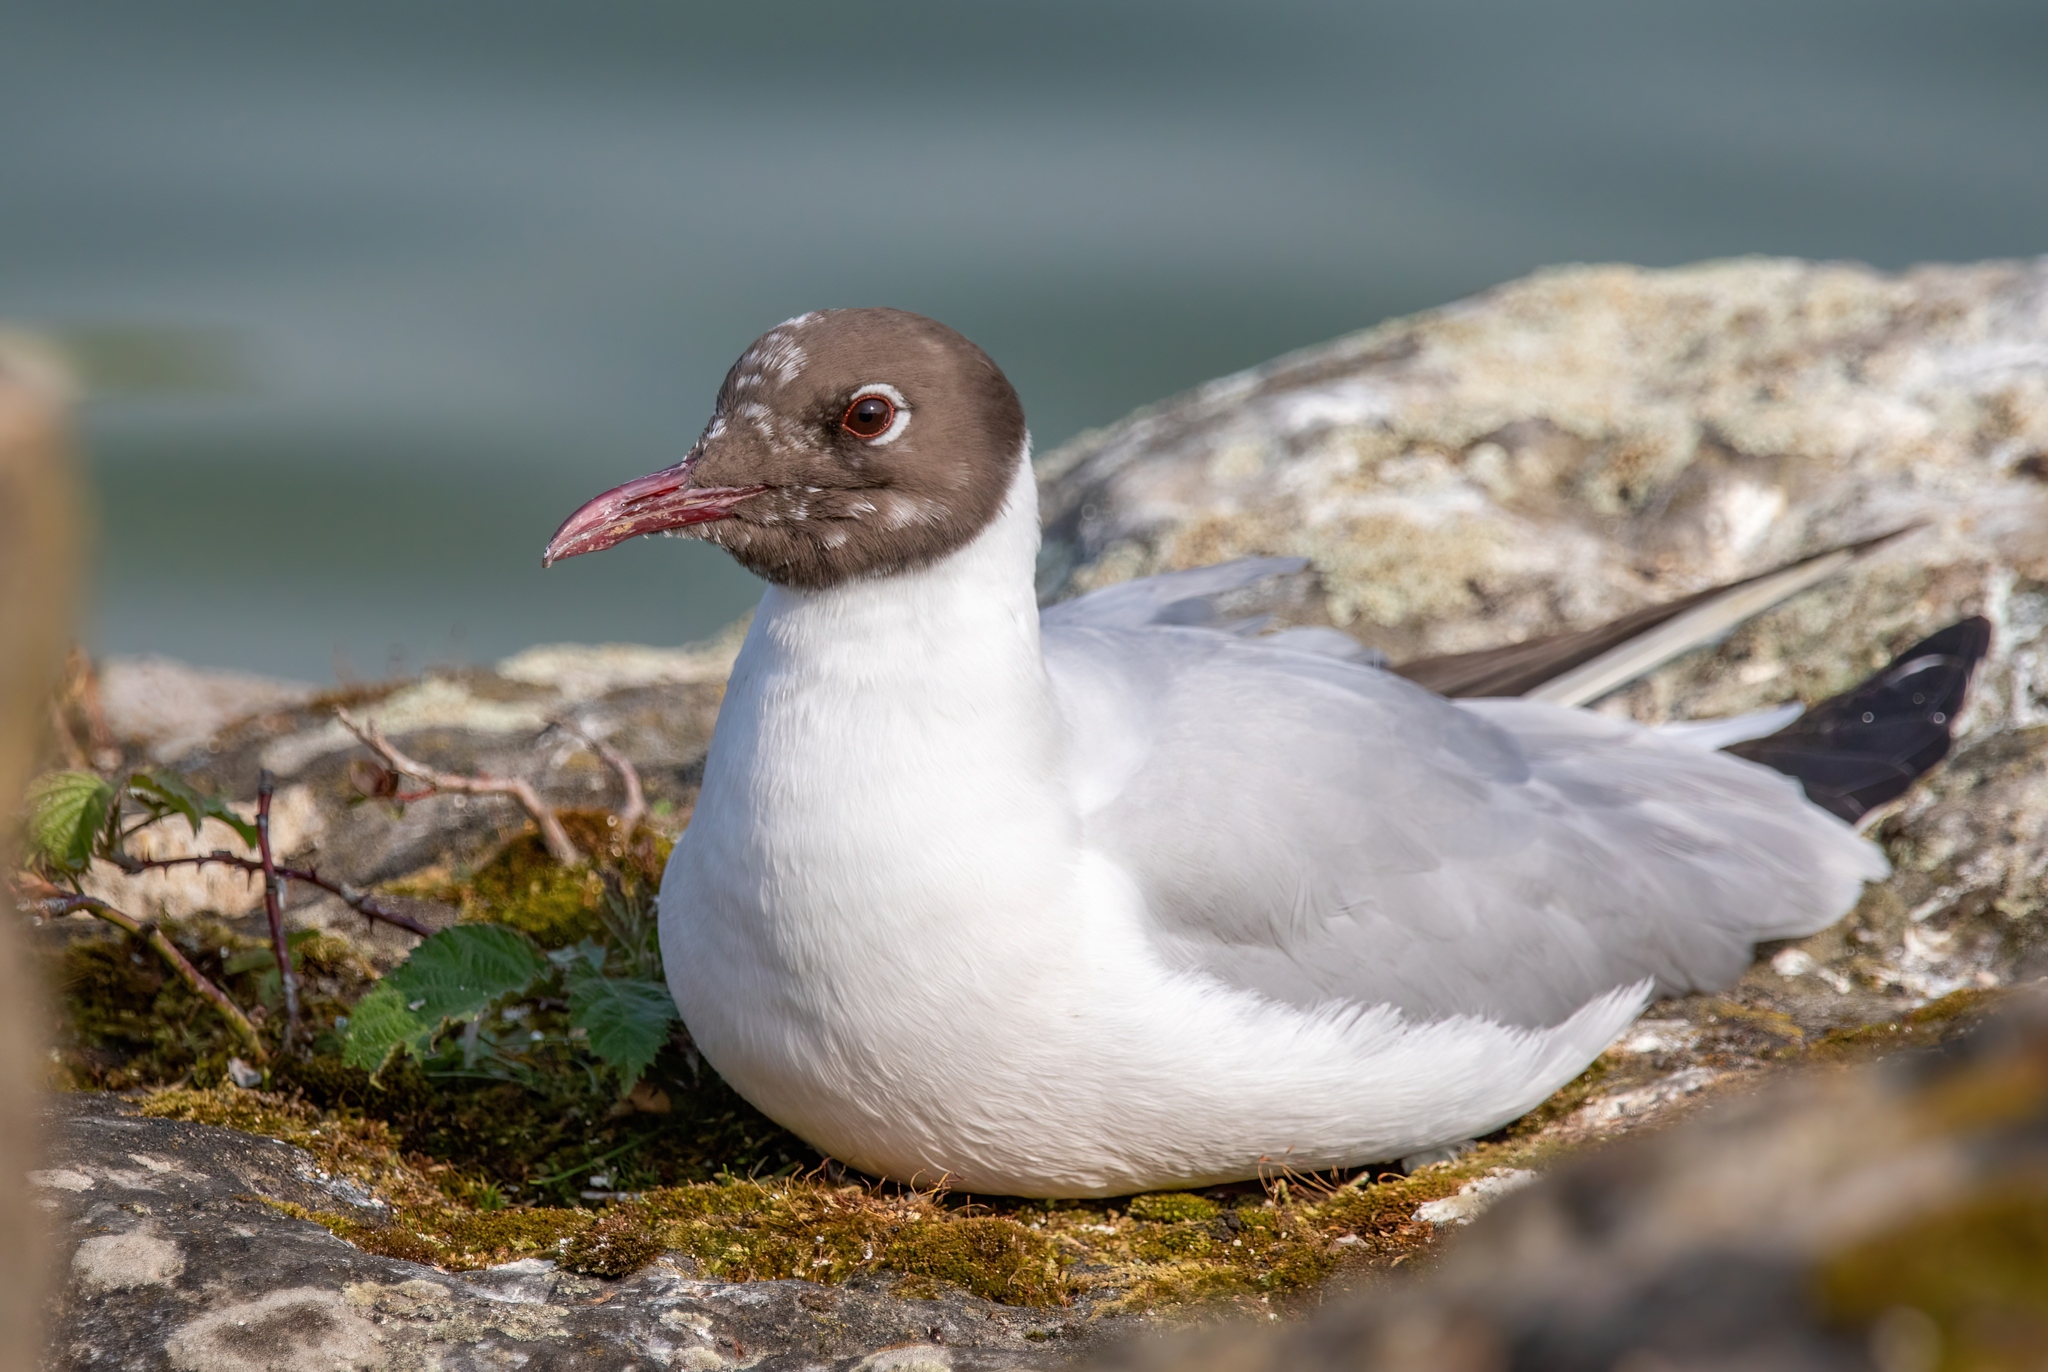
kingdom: Animalia
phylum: Chordata
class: Aves
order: Charadriiformes
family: Laridae
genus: Chroicocephalus
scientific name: Chroicocephalus ridibundus
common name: Black-headed gull
